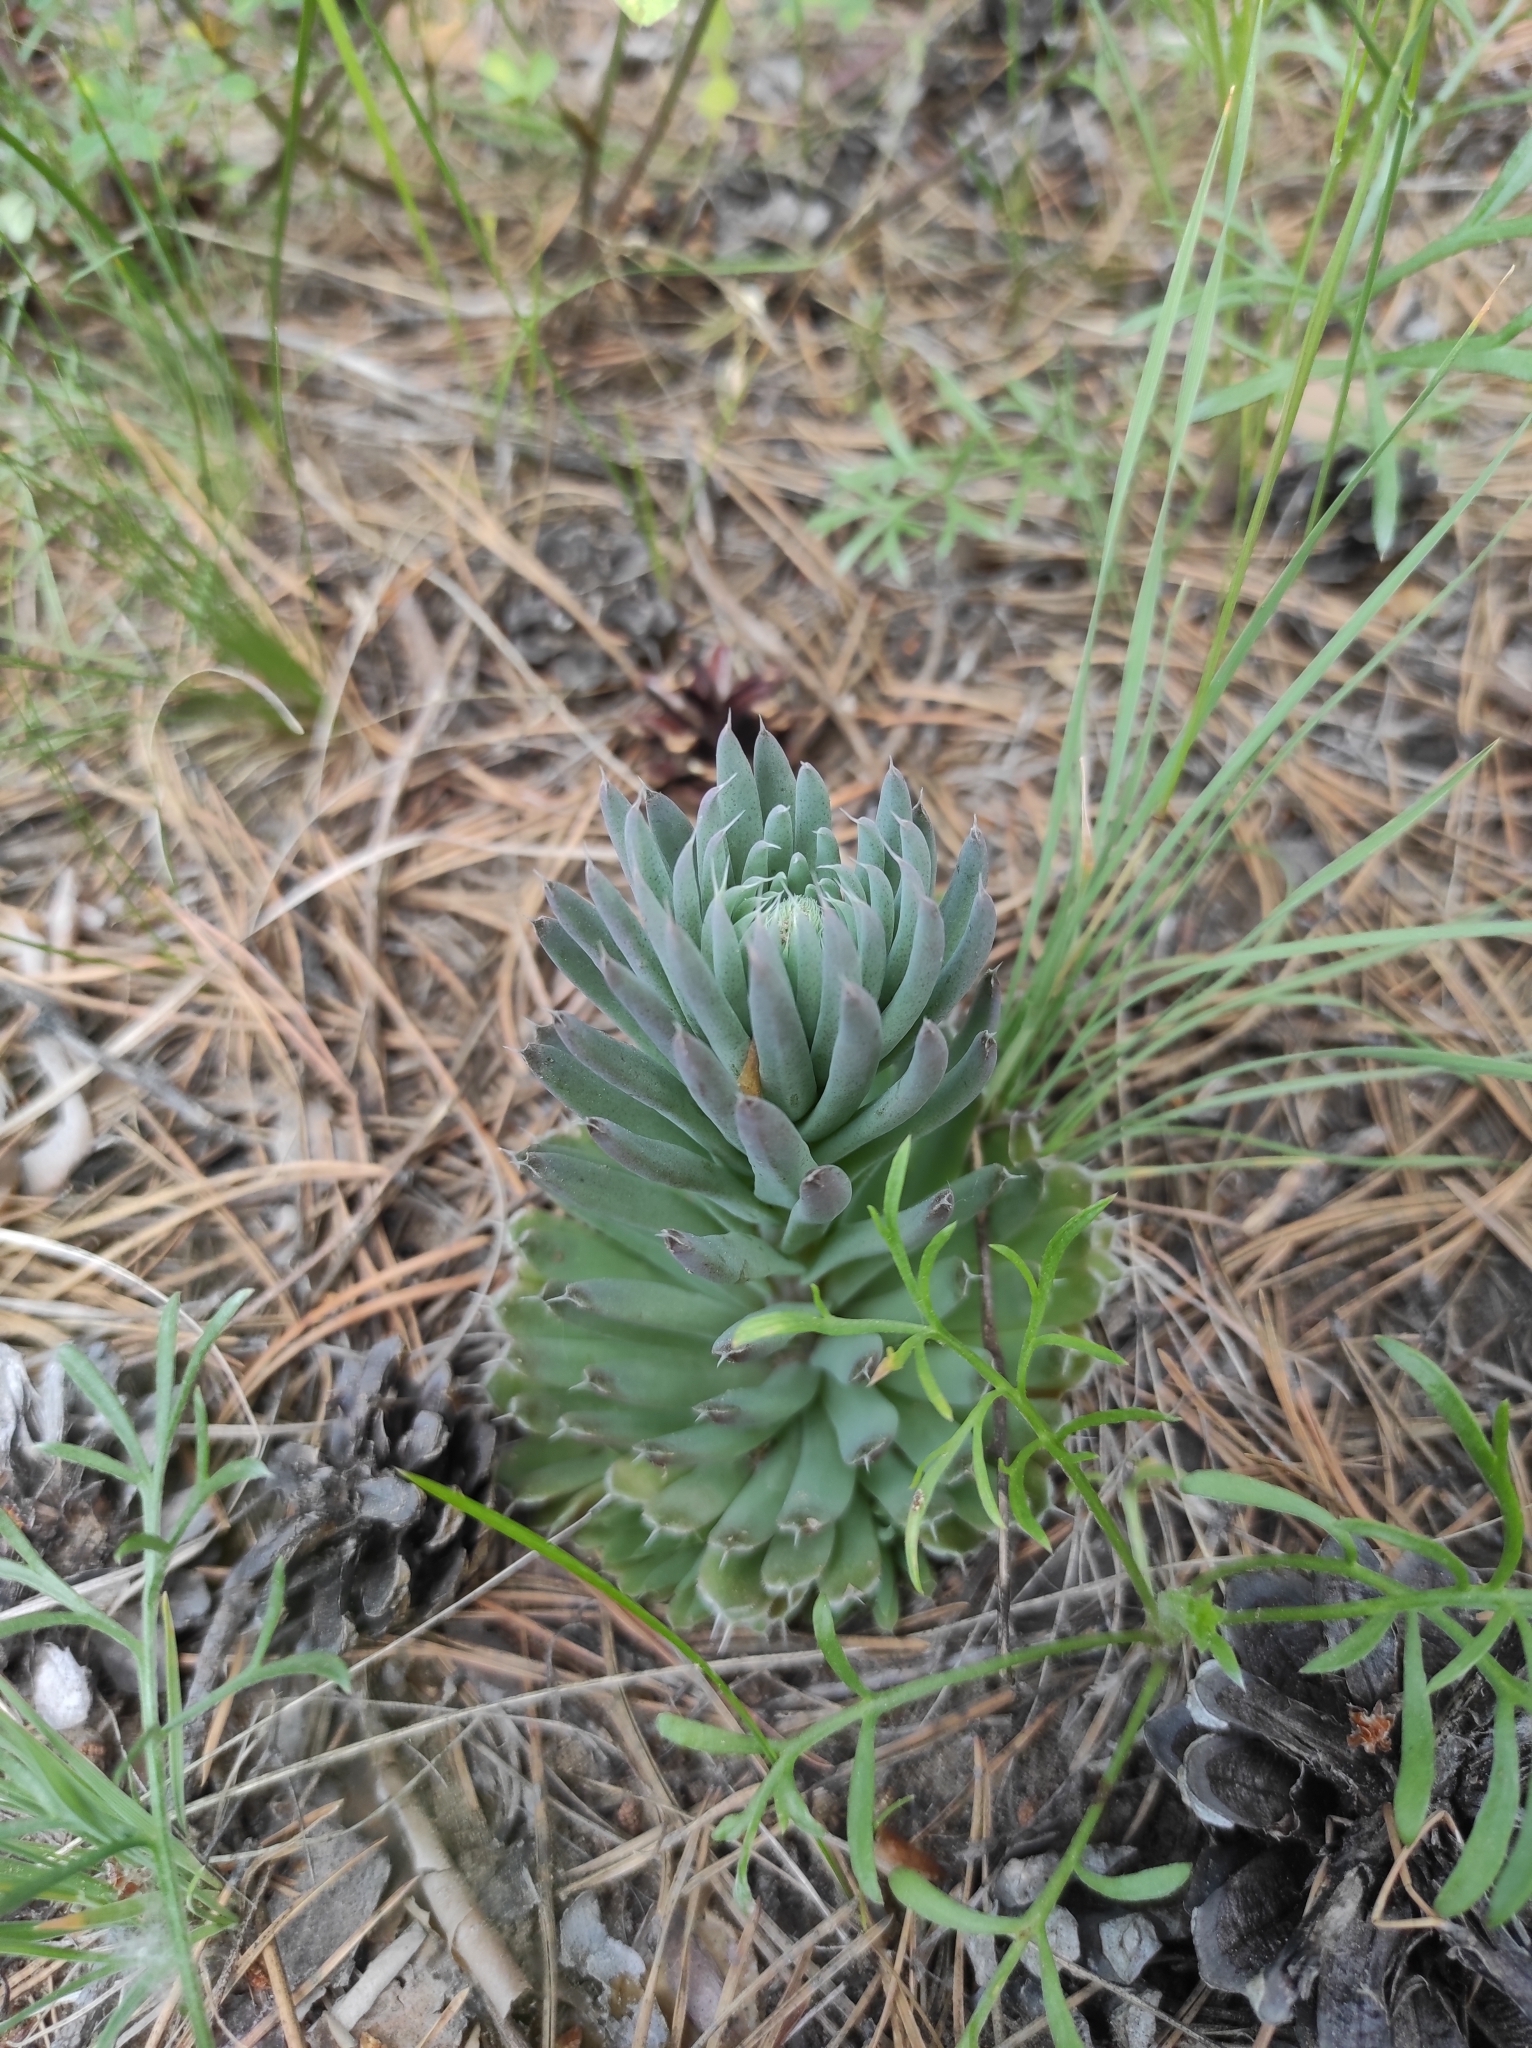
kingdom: Plantae
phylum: Tracheophyta
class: Magnoliopsida
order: Saxifragales
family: Crassulaceae
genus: Orostachys
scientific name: Orostachys spinosa
